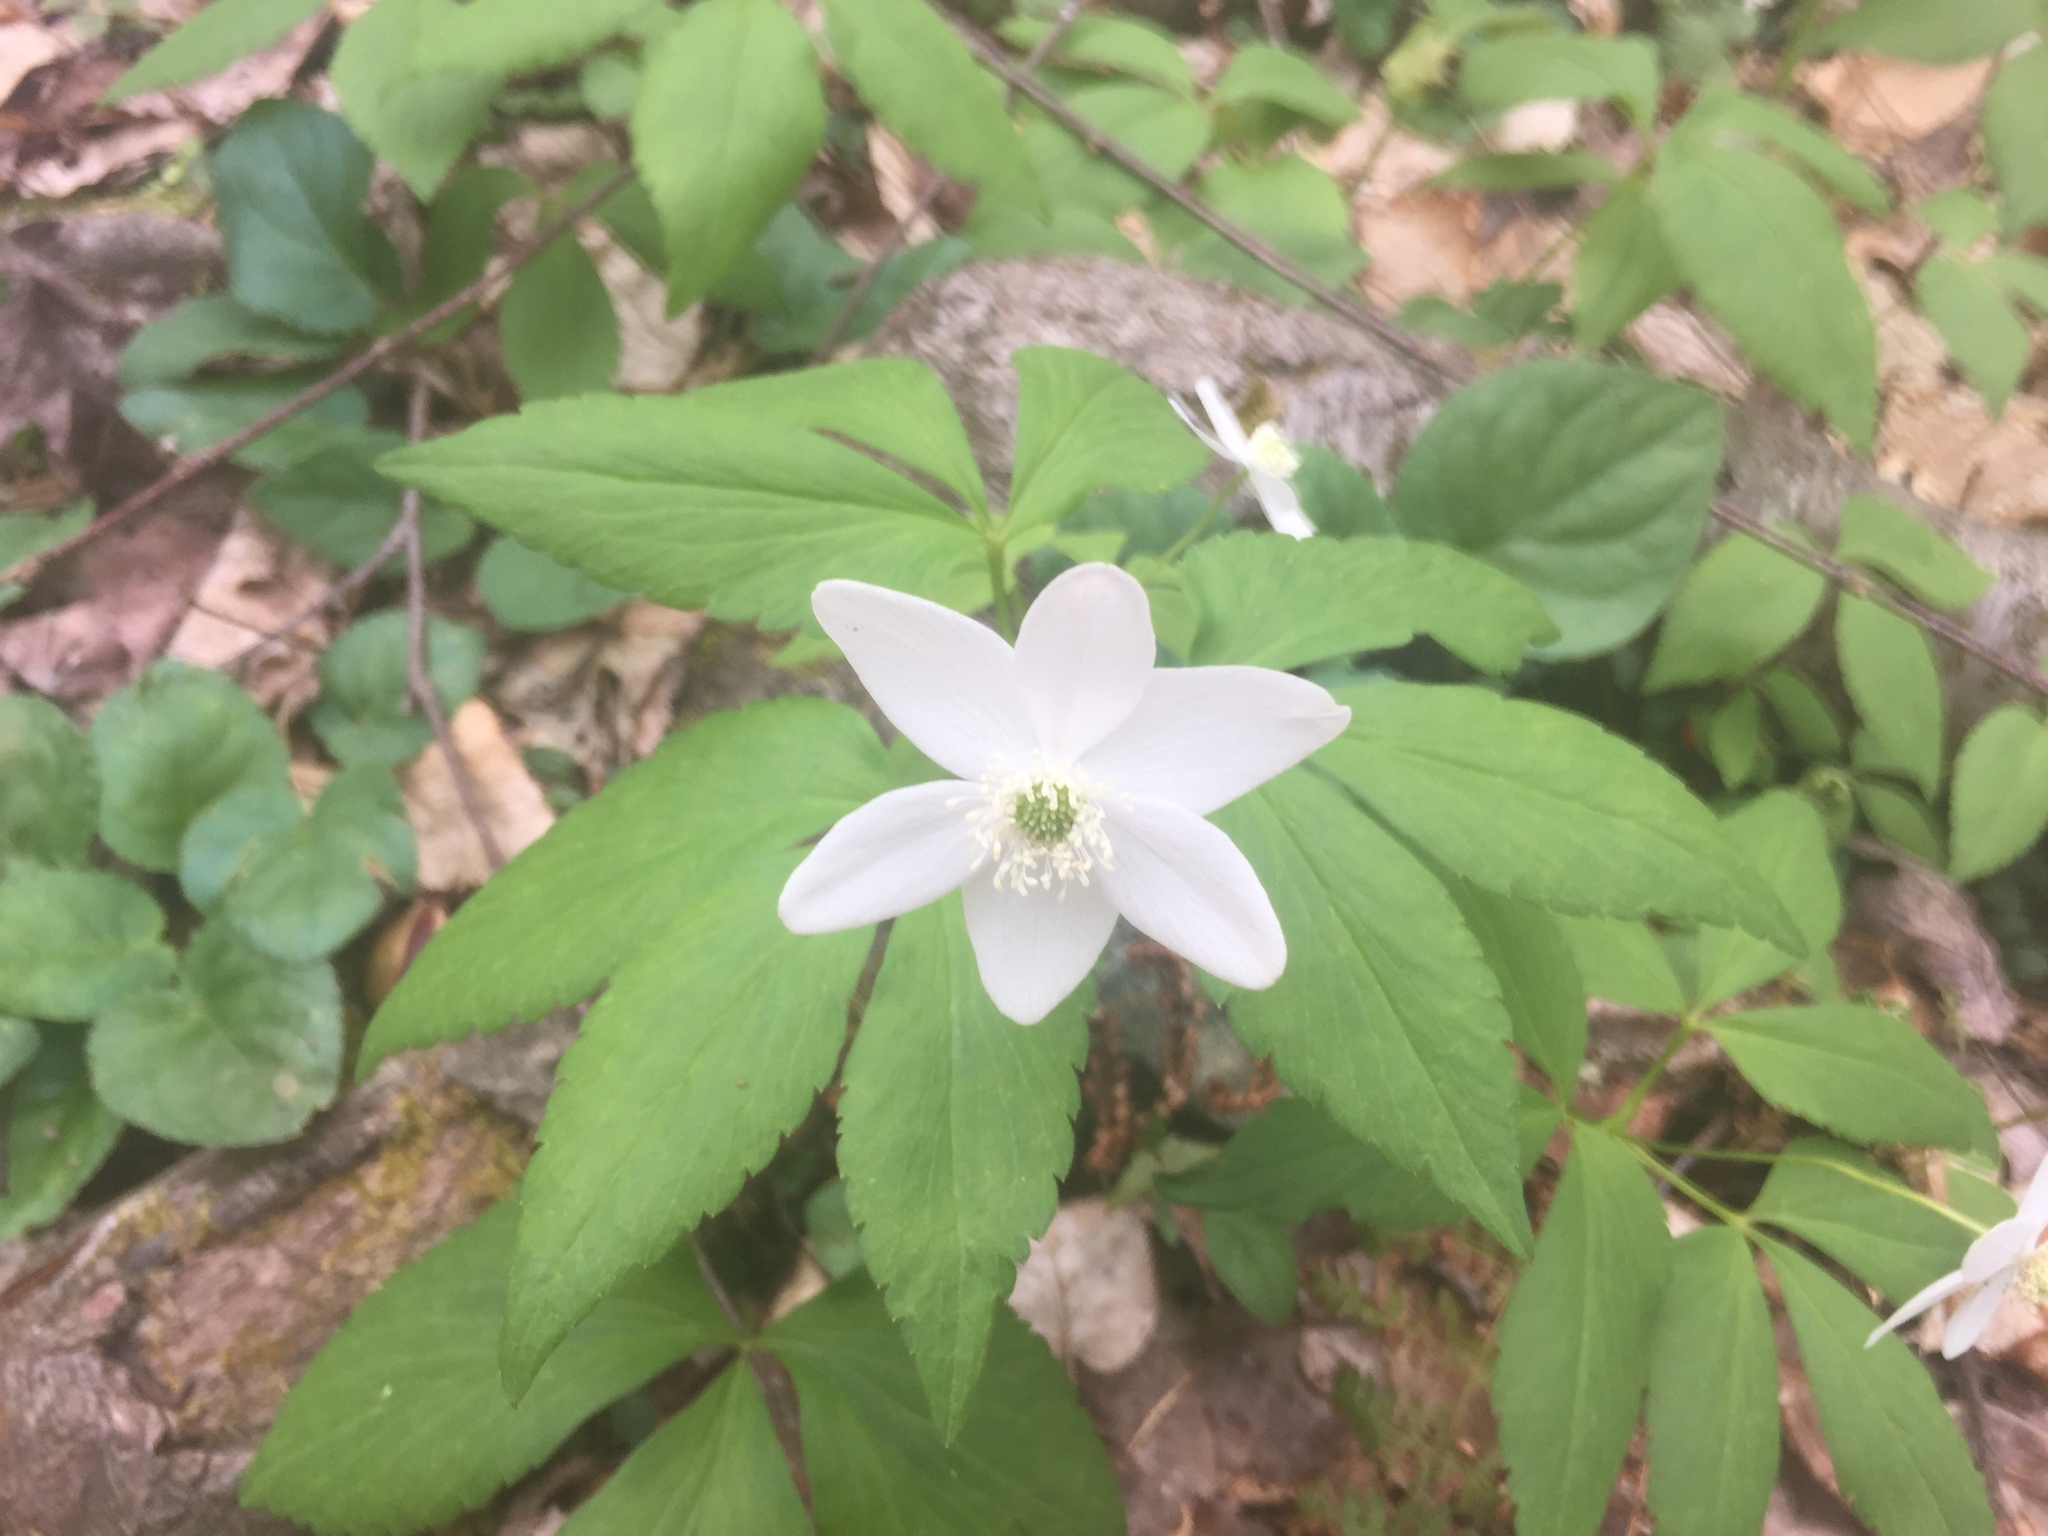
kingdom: Plantae
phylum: Tracheophyta
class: Magnoliopsida
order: Ranunculales
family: Ranunculaceae
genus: Anemone
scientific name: Anemone lancifolia
